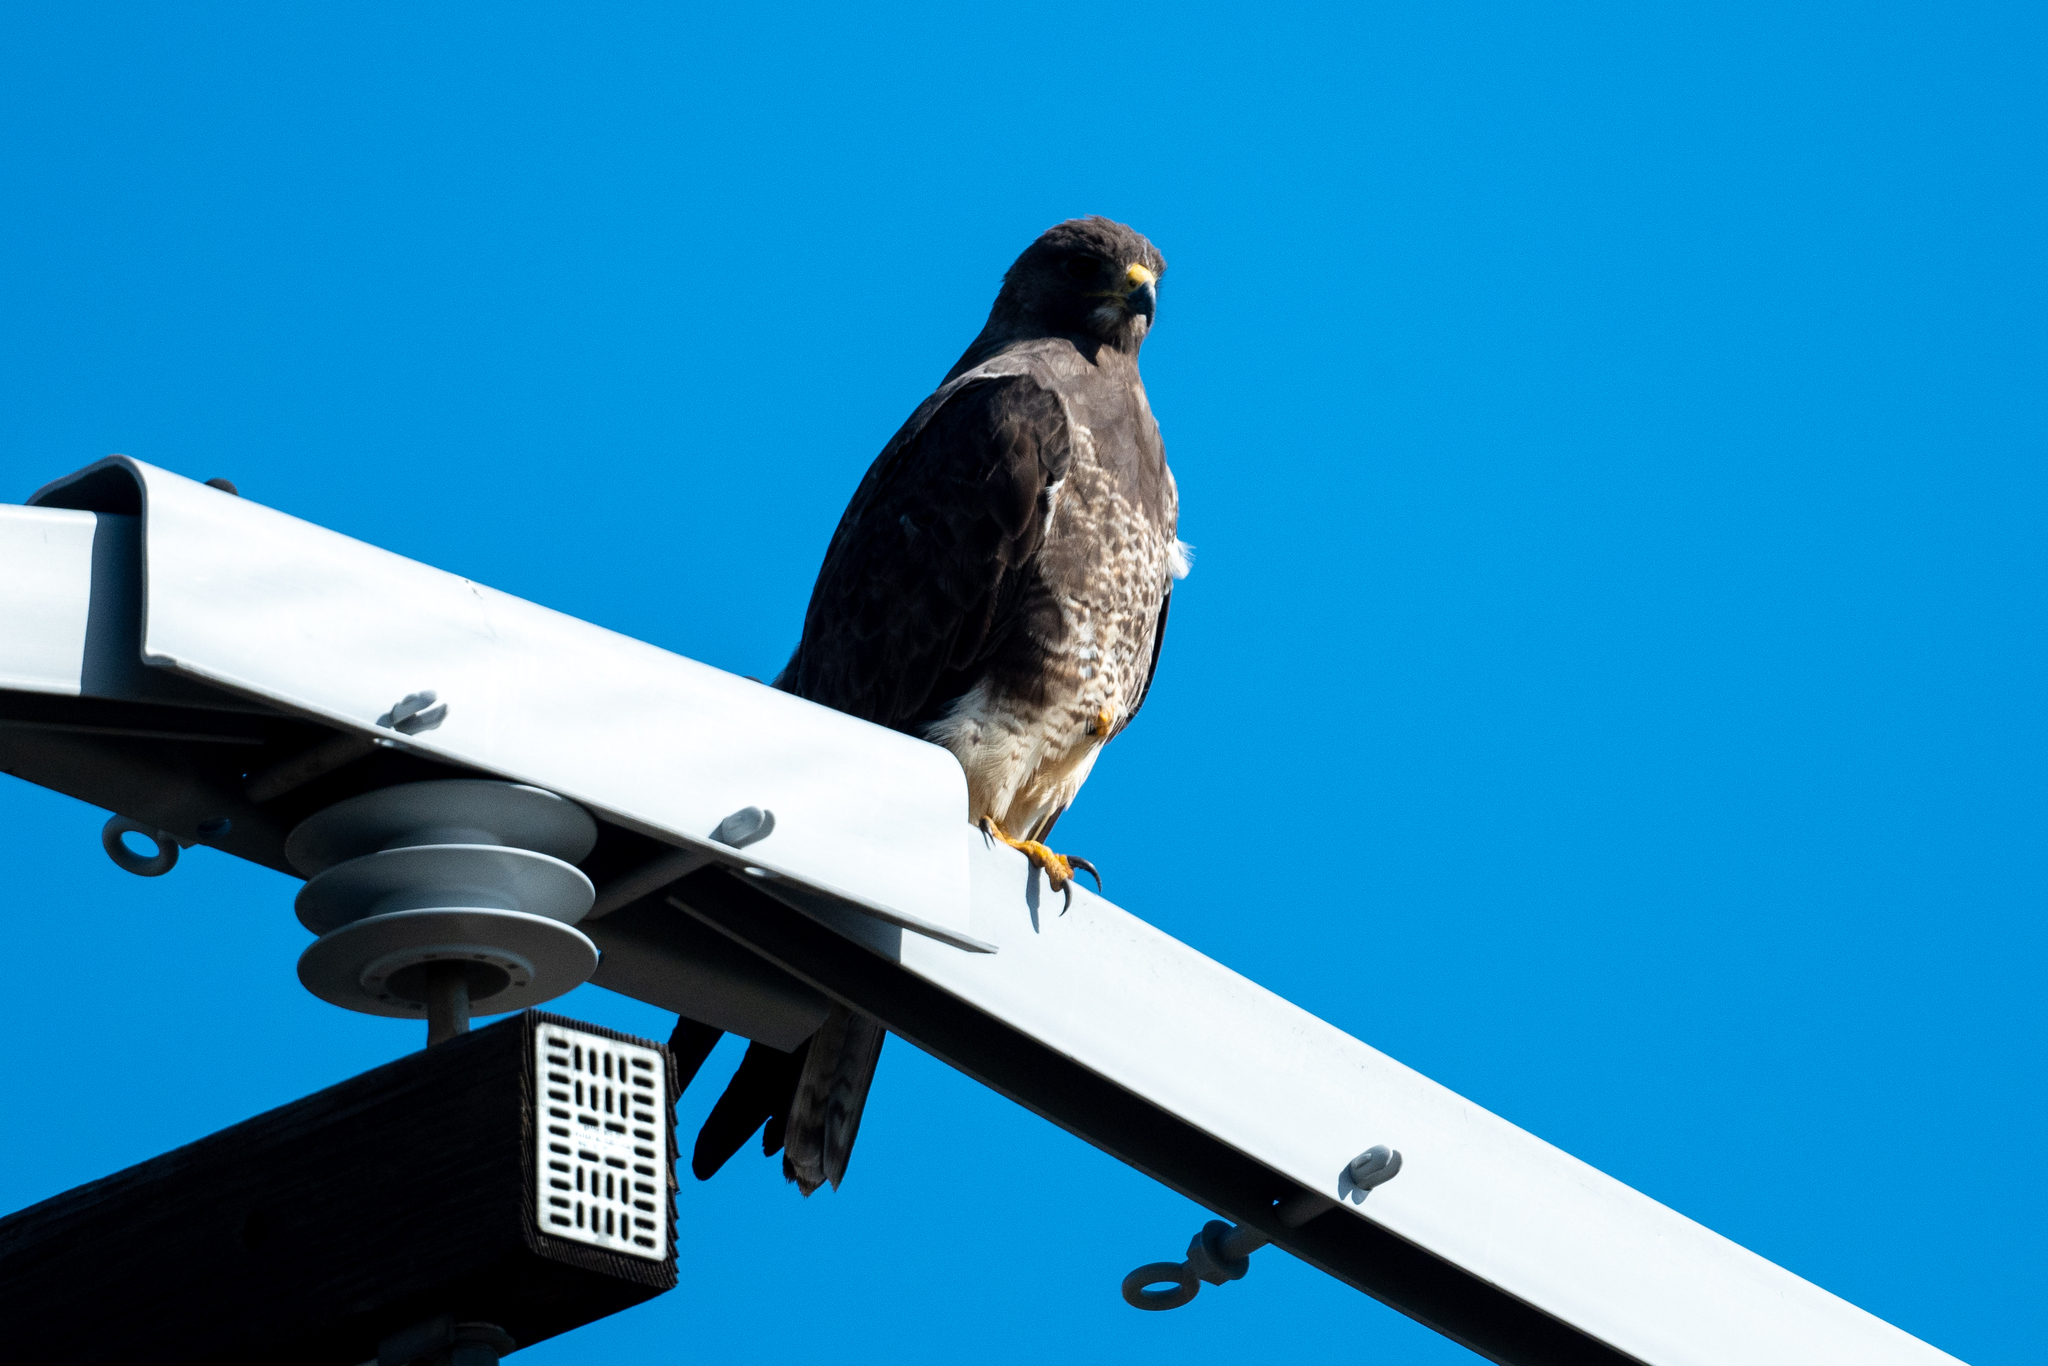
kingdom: Animalia
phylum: Chordata
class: Aves
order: Accipitriformes
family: Accipitridae
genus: Buteo
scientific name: Buteo swainsoni
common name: Swainson's hawk
